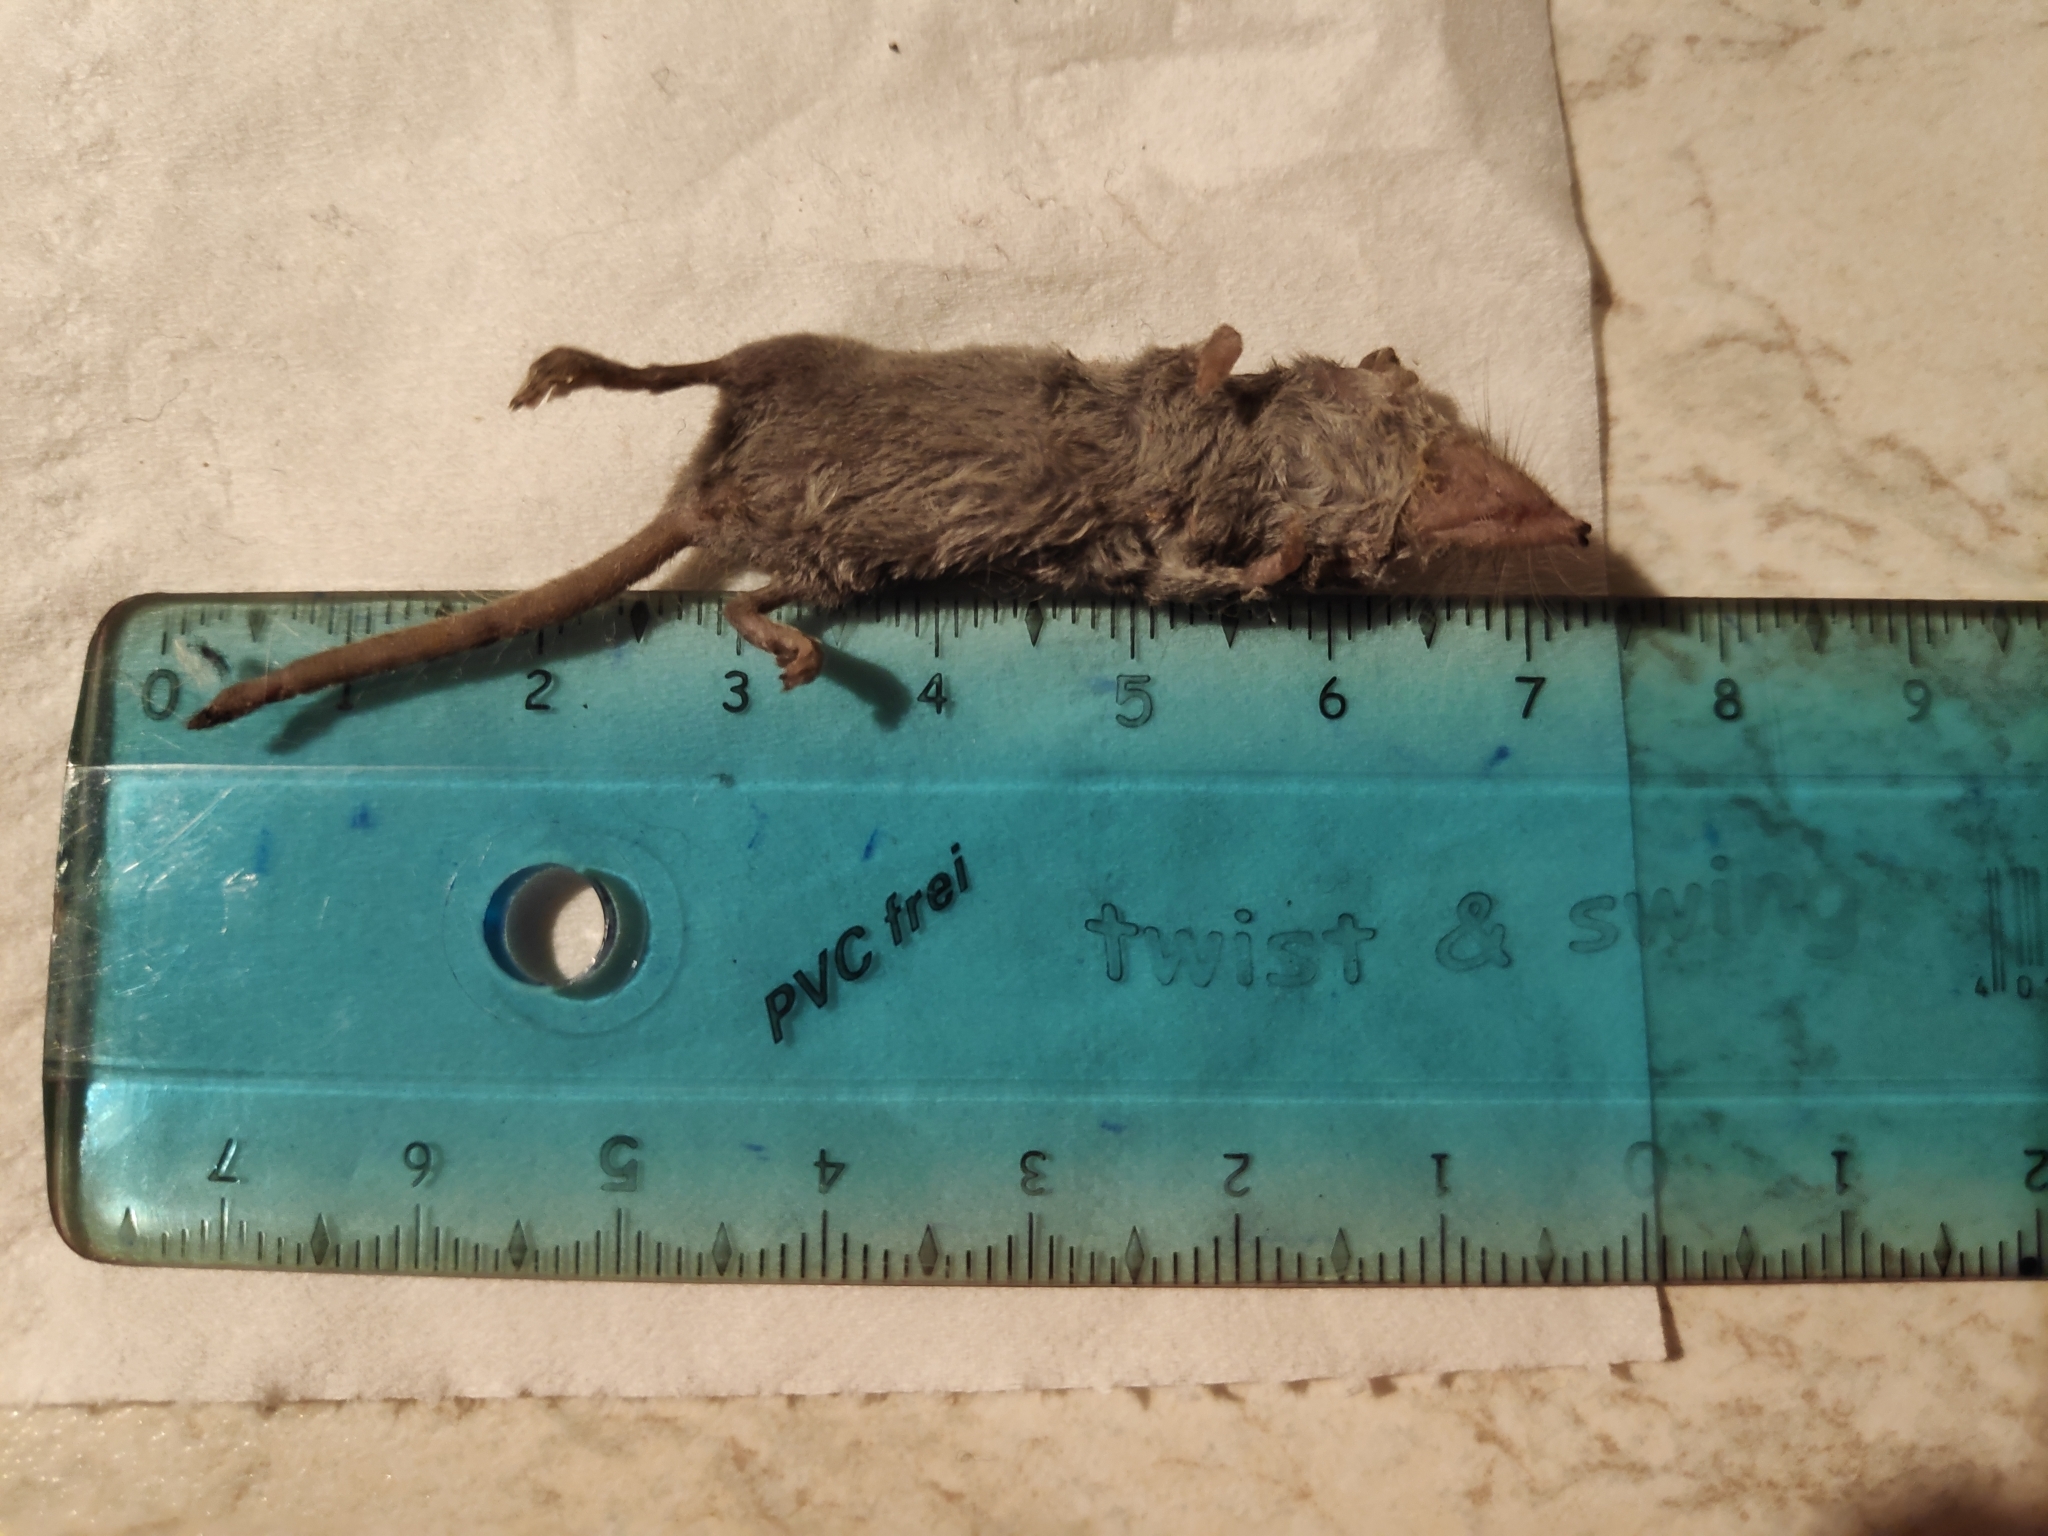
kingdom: Animalia
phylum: Chordata
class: Mammalia
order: Soricomorpha
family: Soricidae
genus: Suncus
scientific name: Suncus etruscus
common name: Etruscan shrew
